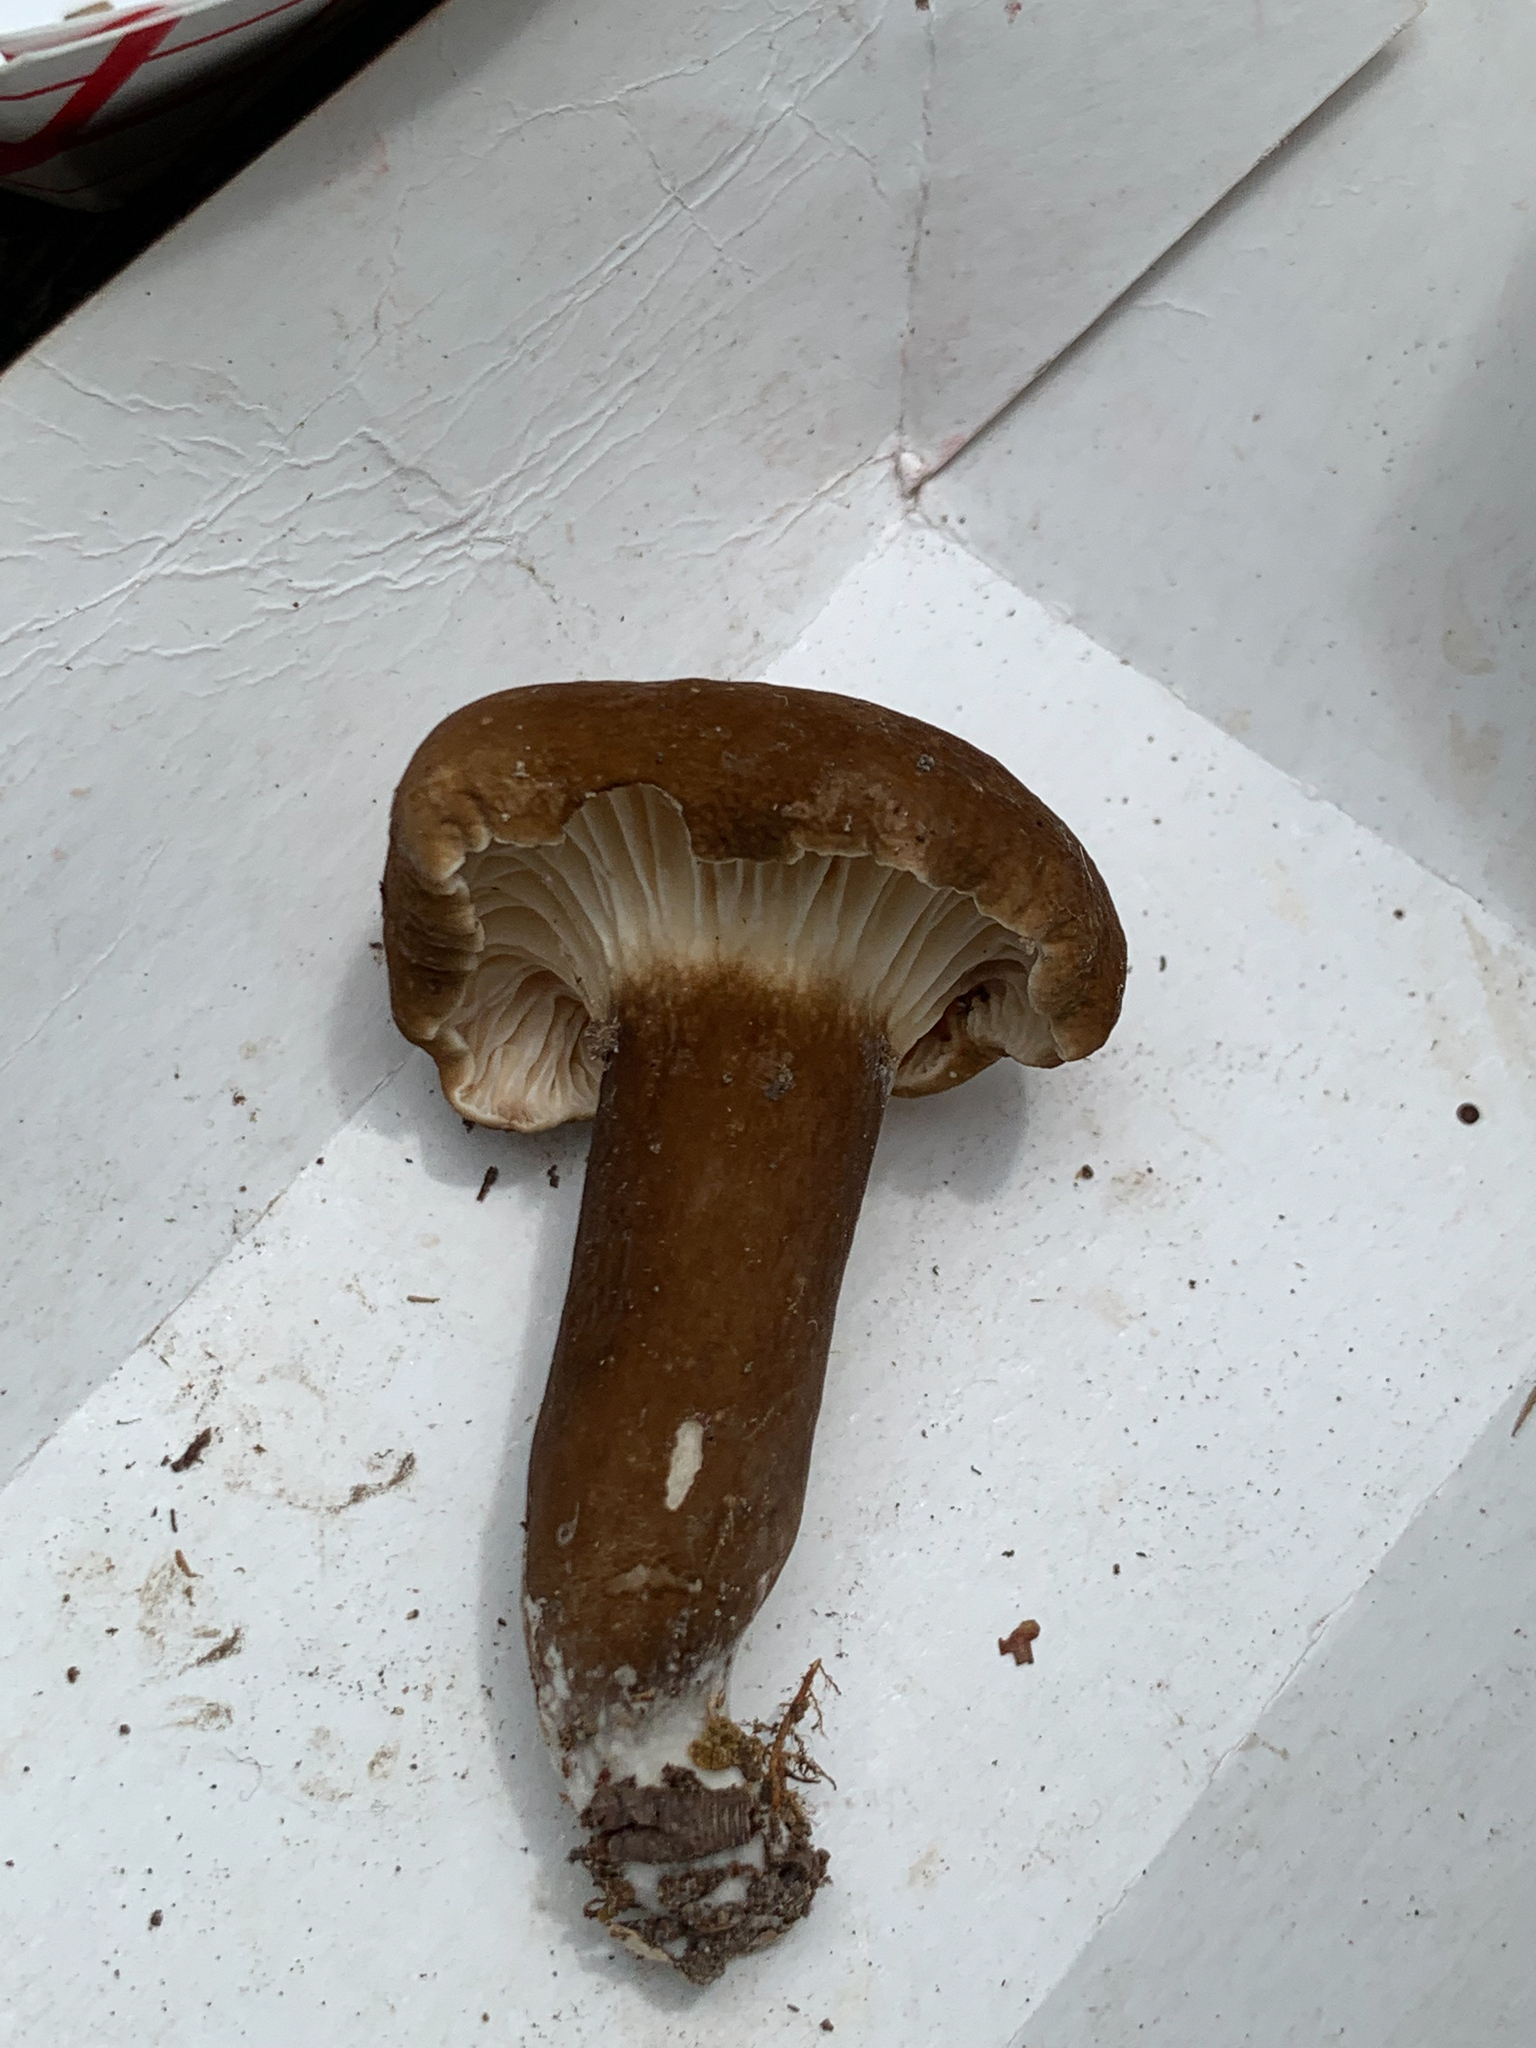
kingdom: Fungi
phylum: Basidiomycota
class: Agaricomycetes
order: Russulales
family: Russulaceae
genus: Lactarius
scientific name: Lactarius lignyotus
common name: Velvet milkcap
